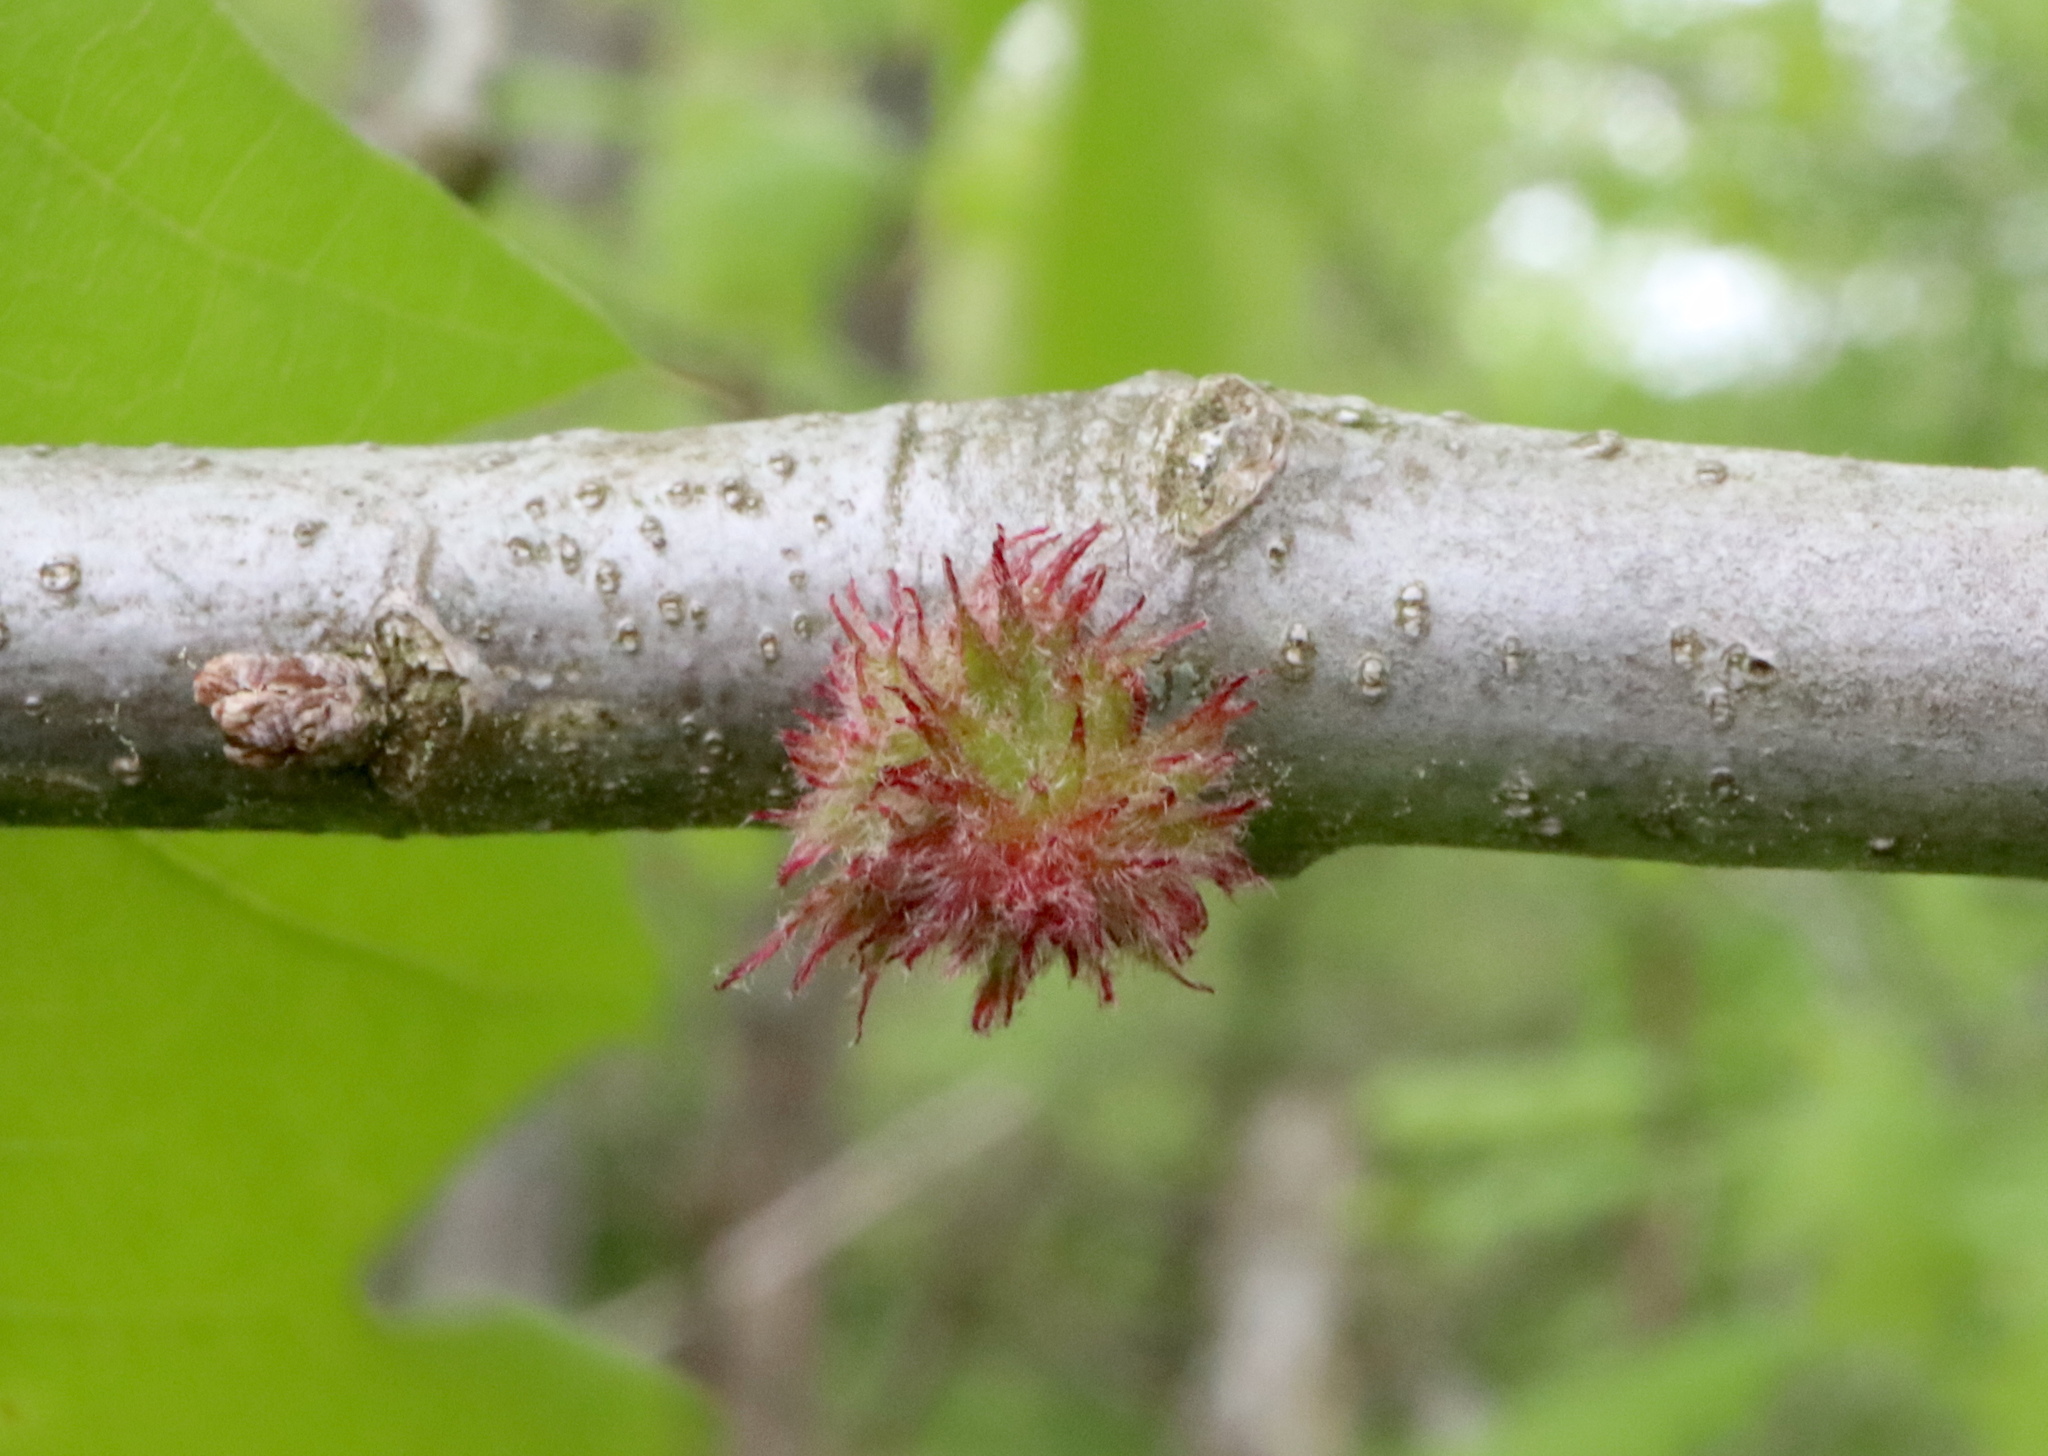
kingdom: Animalia
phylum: Arthropoda
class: Insecta
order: Hymenoptera
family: Cynipidae
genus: Dryocosmus
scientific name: Dryocosmus
